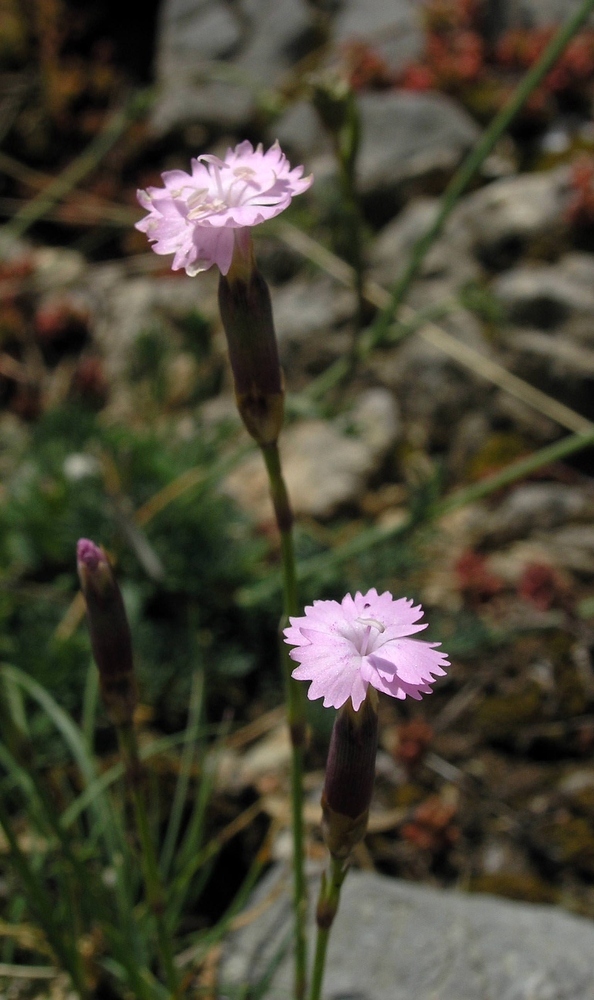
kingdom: Plantae
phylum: Tracheophyta
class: Magnoliopsida
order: Caryophyllales
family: Caryophyllaceae
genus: Dianthus
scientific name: Dianthus benearnensis
